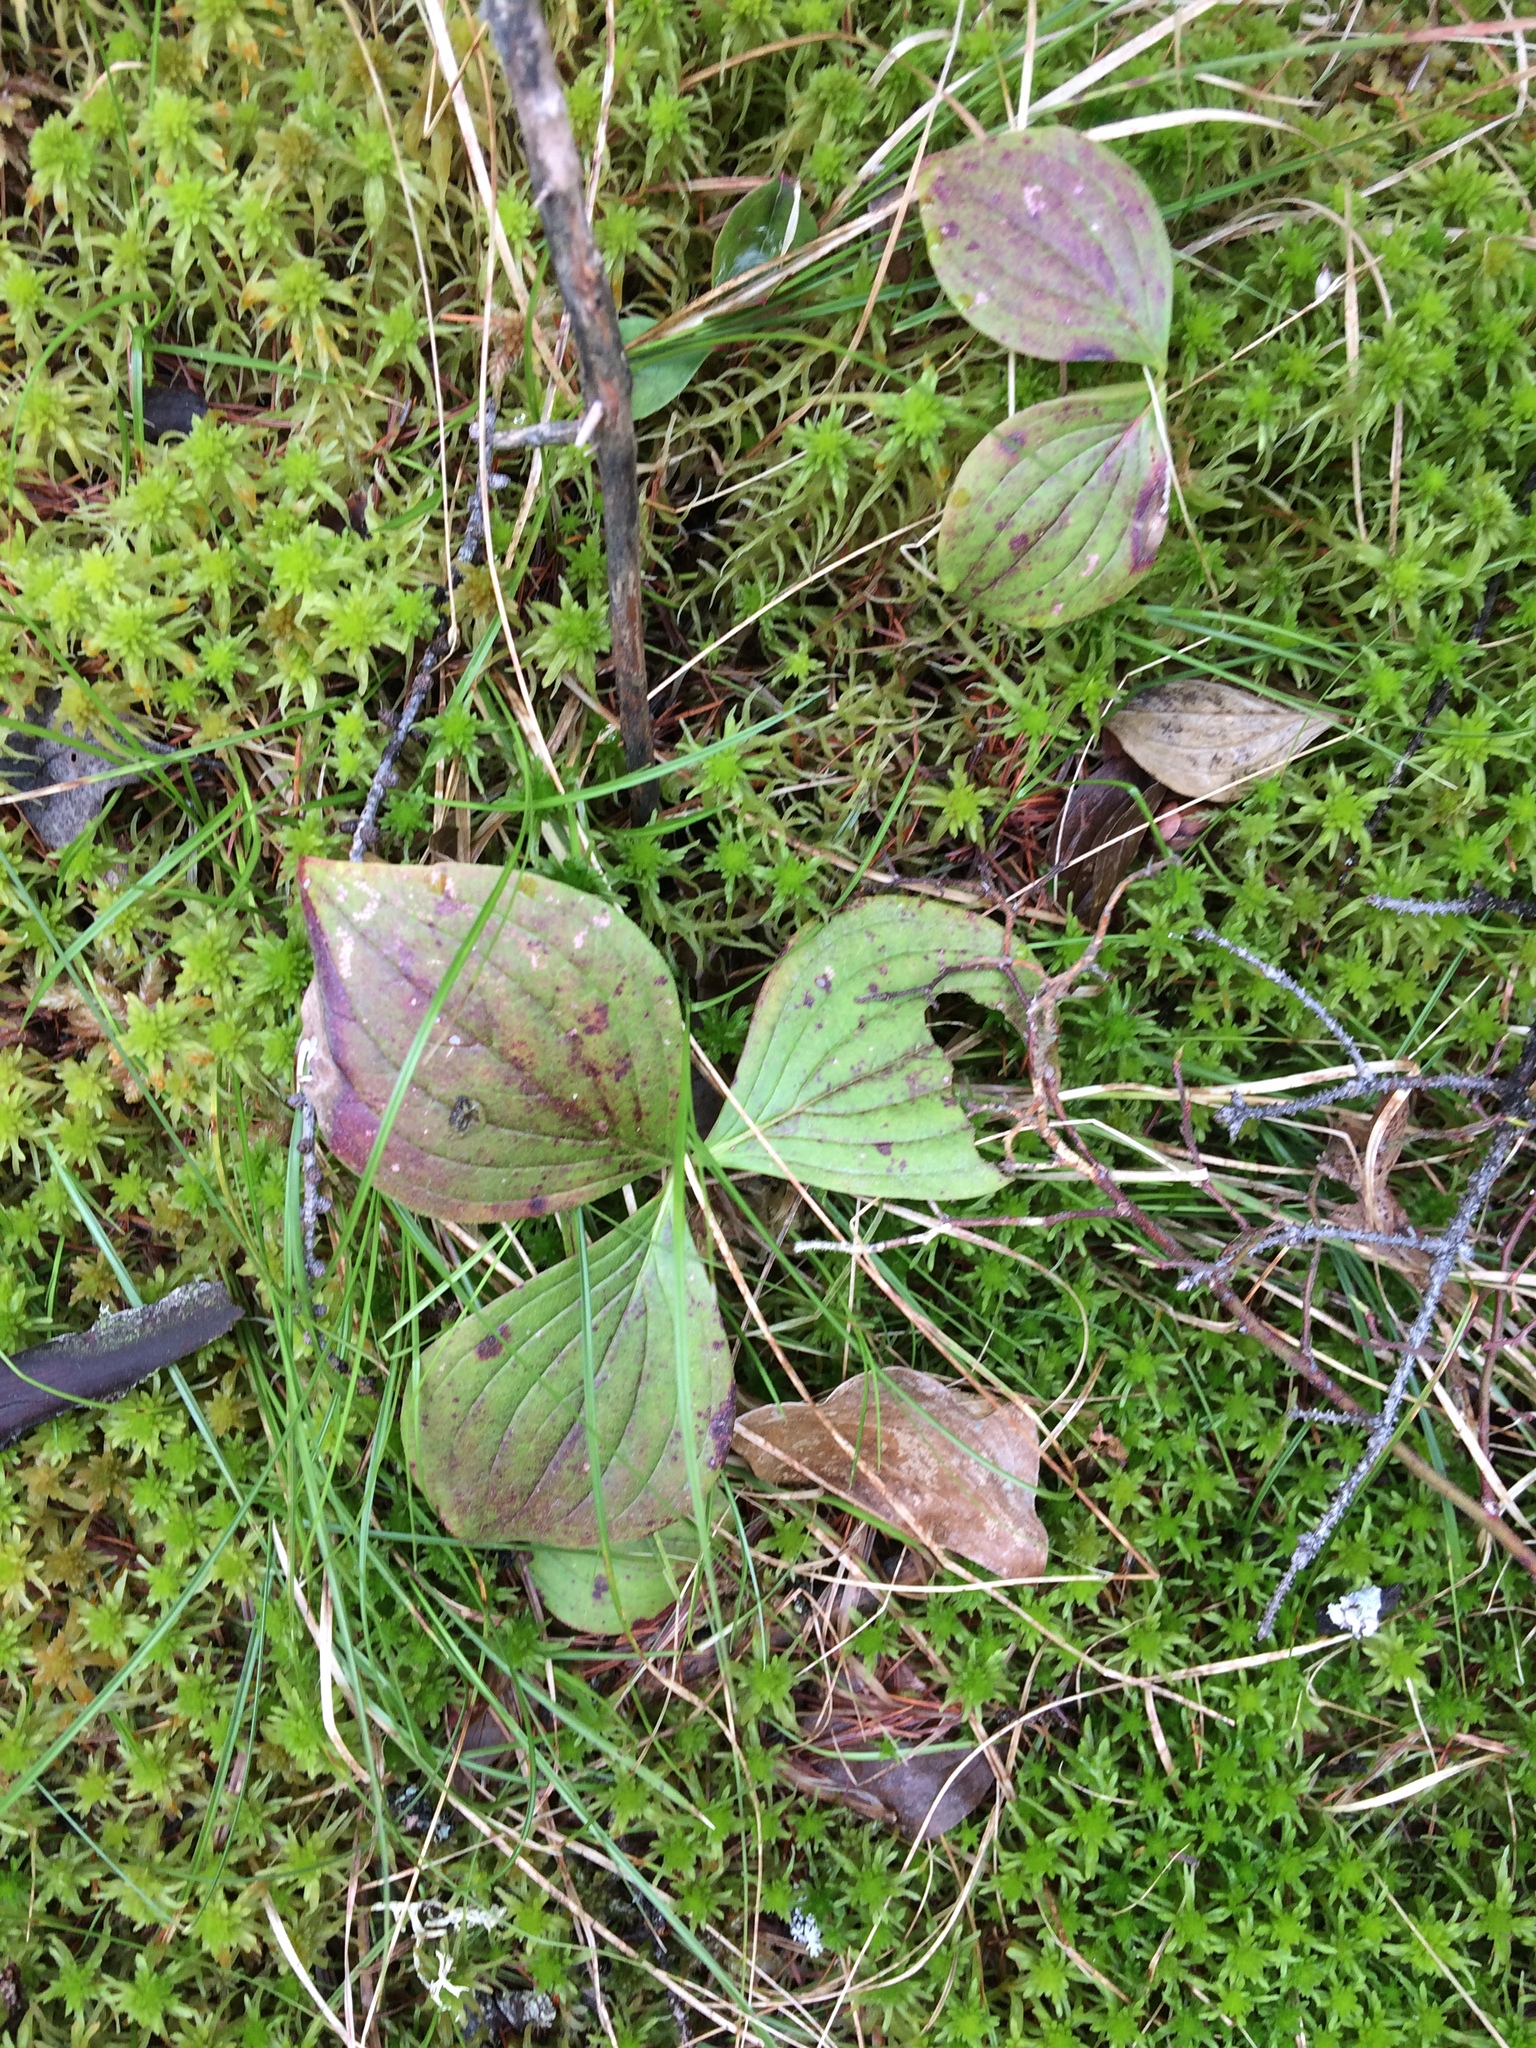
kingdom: Plantae
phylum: Tracheophyta
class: Magnoliopsida
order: Cornales
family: Cornaceae
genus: Cornus
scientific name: Cornus canadensis
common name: Creeping dogwood
